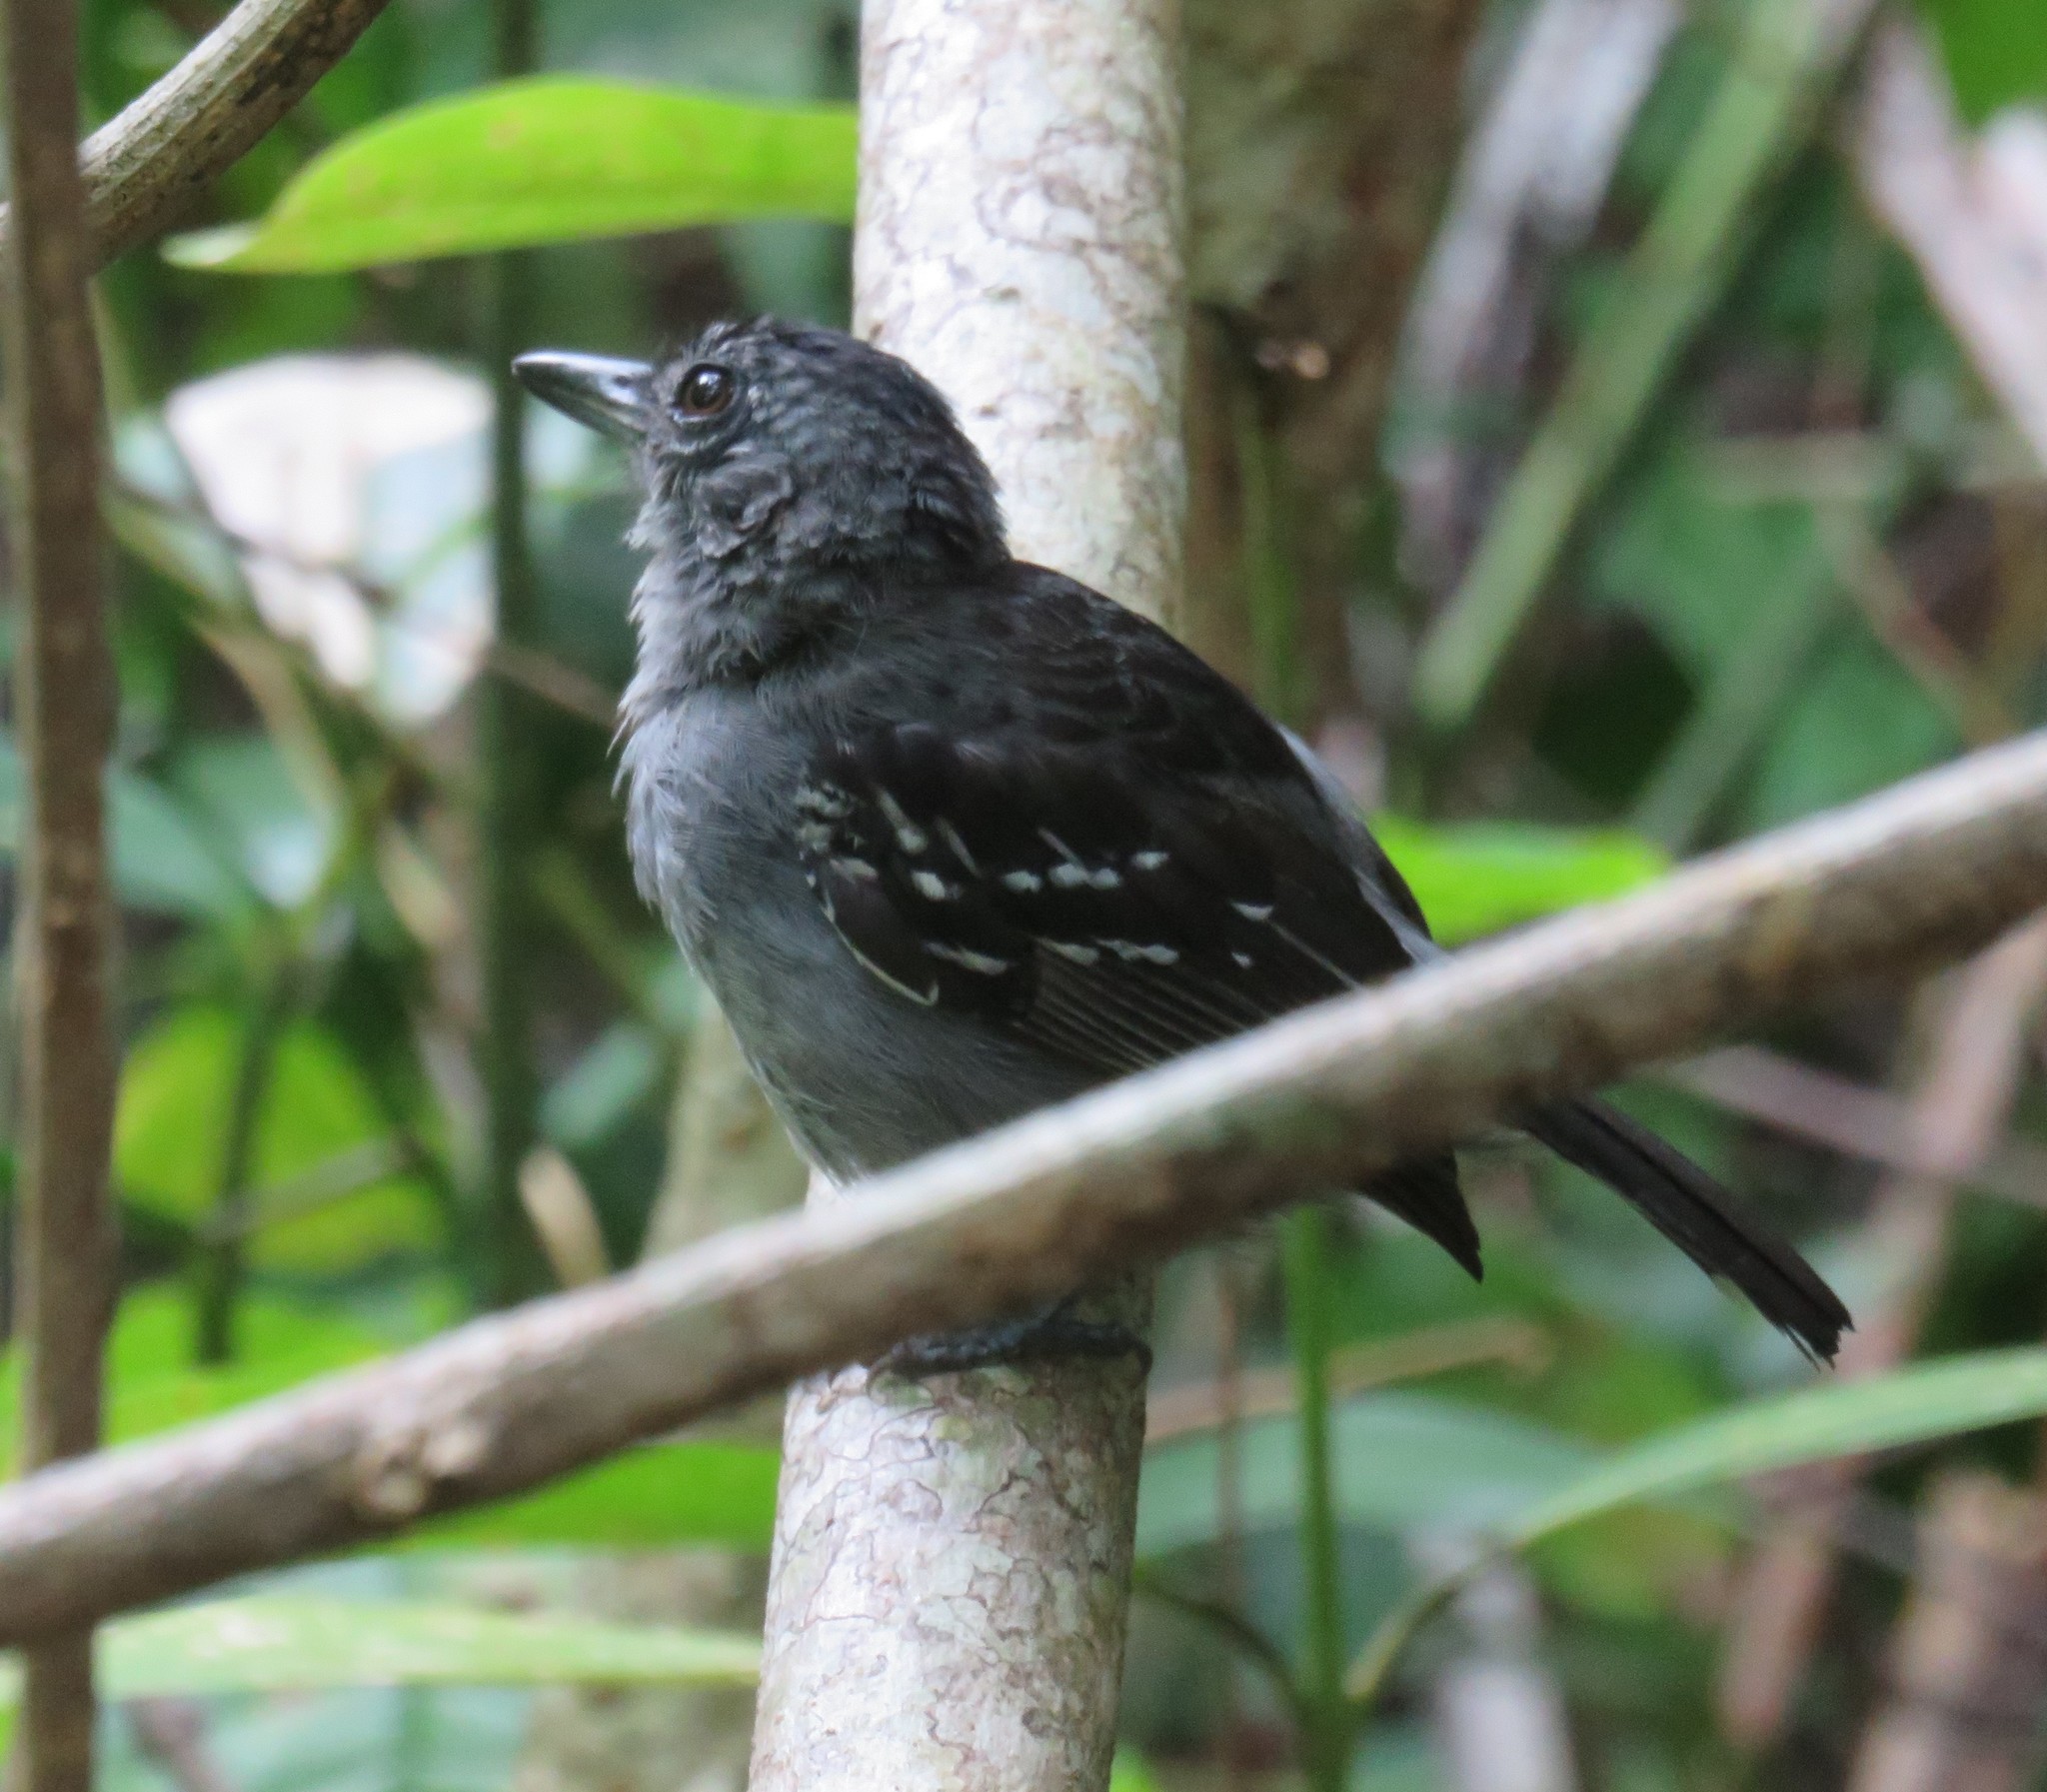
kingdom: Animalia
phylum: Chordata
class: Aves
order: Passeriformes
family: Thamnophilidae
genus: Thamnophilus
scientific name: Thamnophilus atrinucha
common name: Black-crowned antshrike
